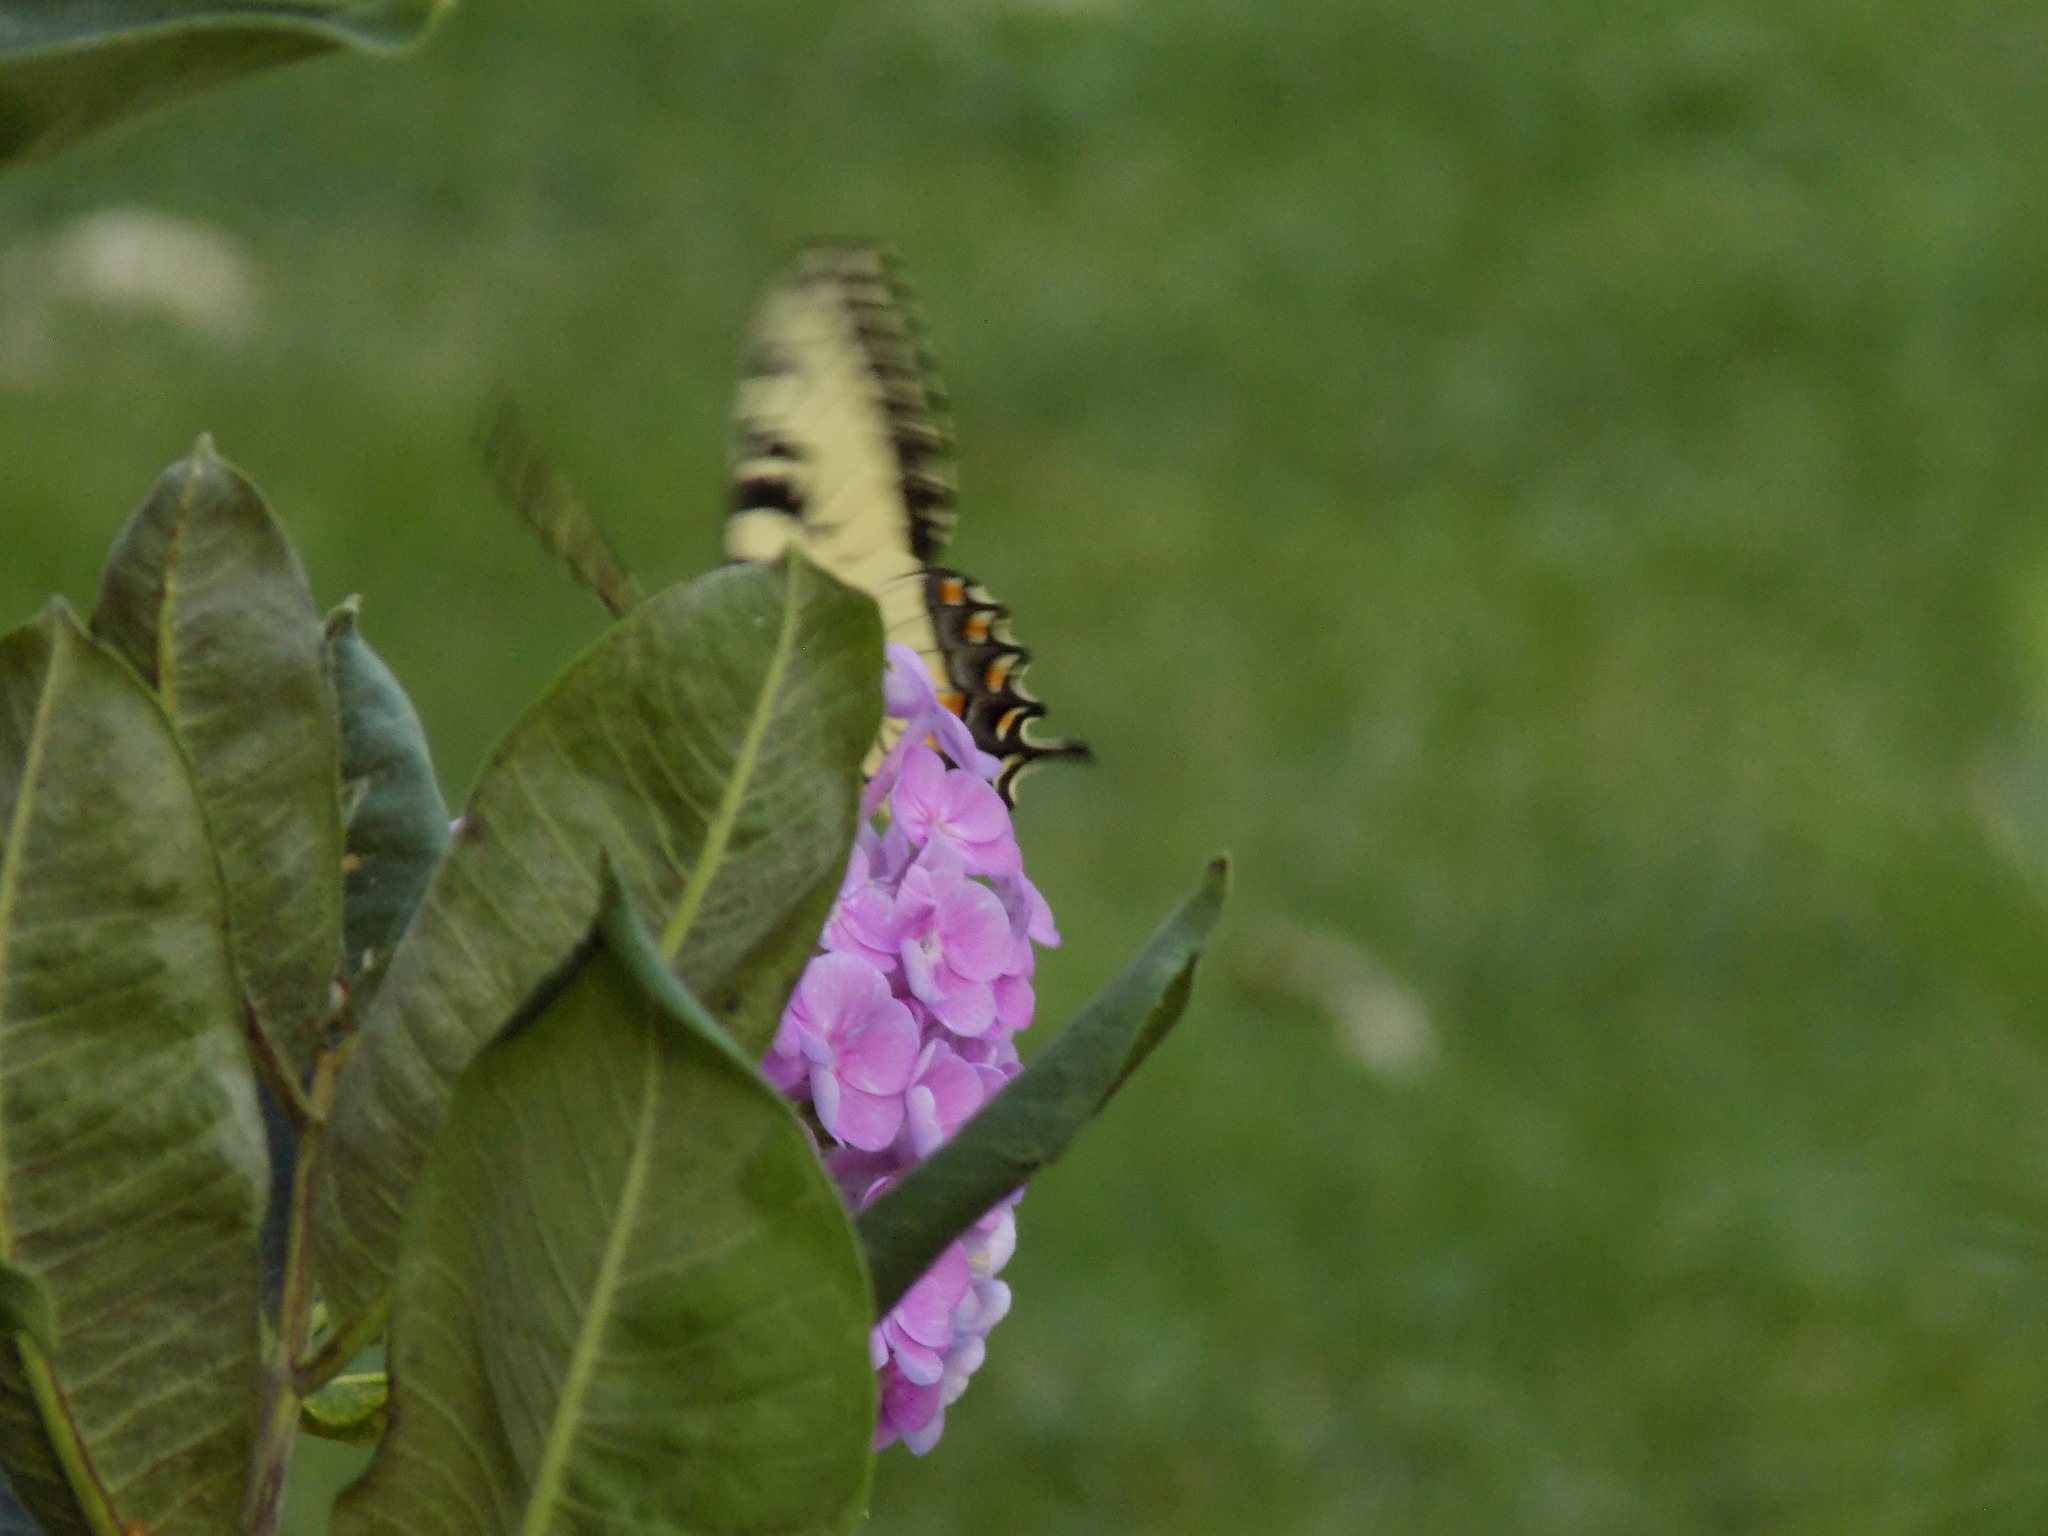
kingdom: Animalia
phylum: Arthropoda
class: Insecta
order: Lepidoptera
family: Papilionidae
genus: Papilio
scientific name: Papilio glaucus
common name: Tiger swallowtail
